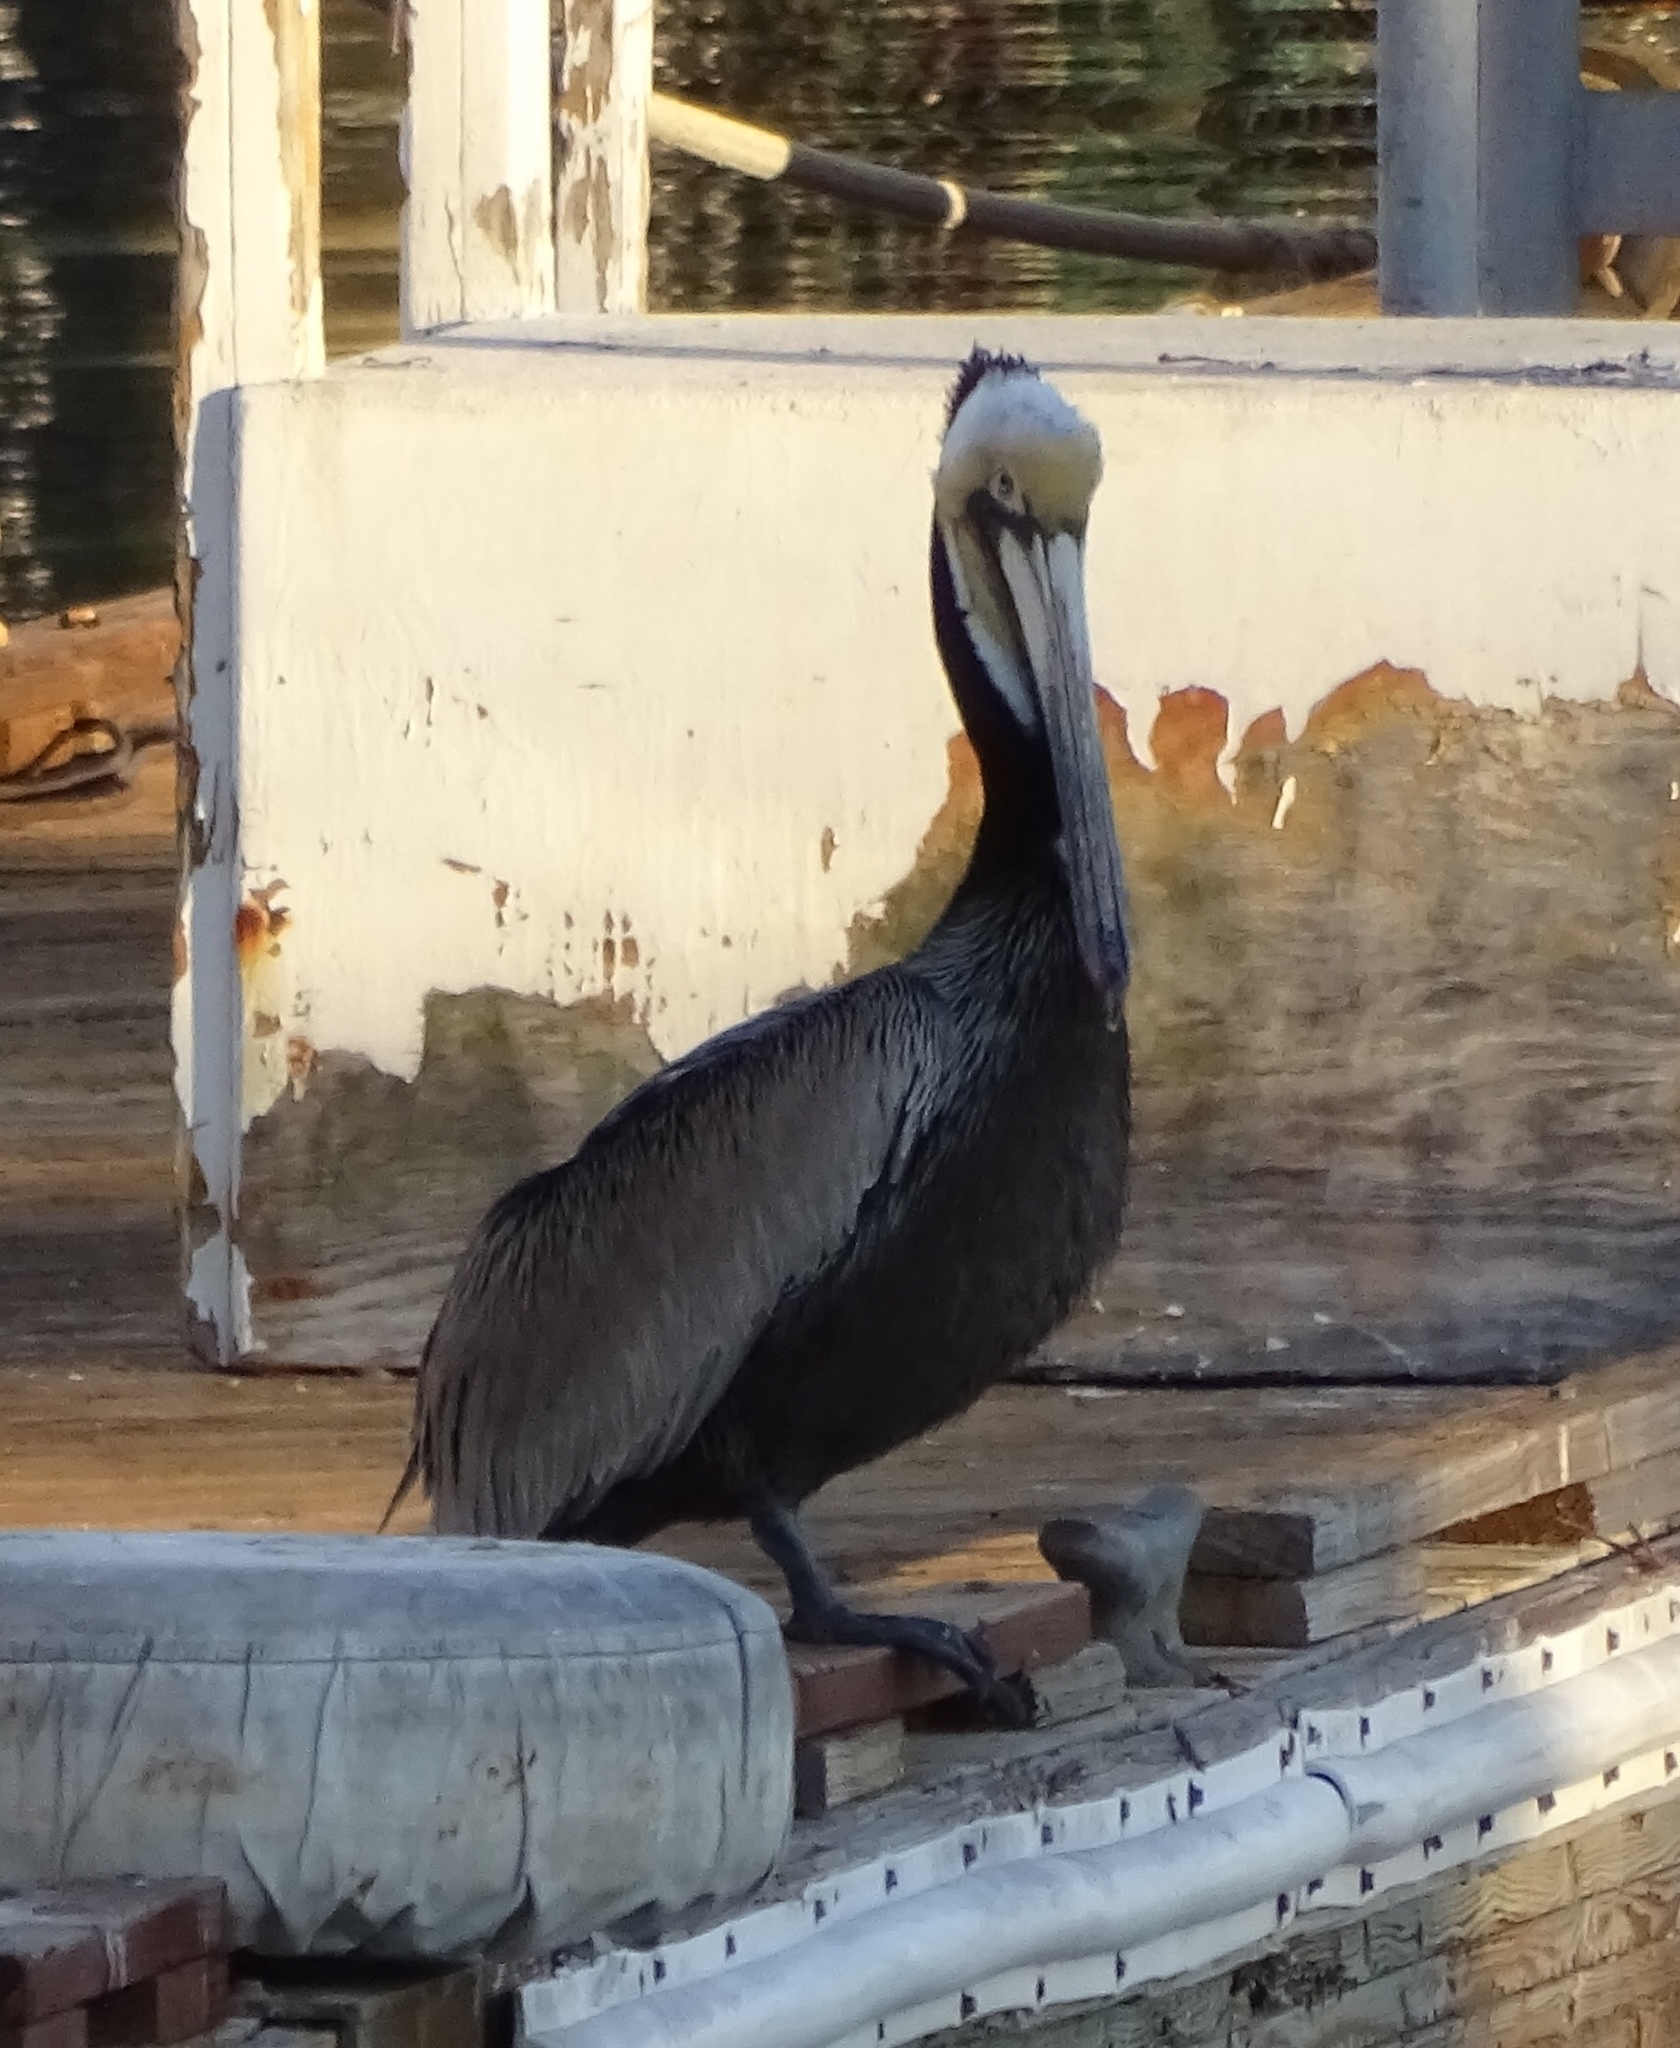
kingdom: Animalia
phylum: Chordata
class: Aves
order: Pelecaniformes
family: Pelecanidae
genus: Pelecanus
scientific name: Pelecanus occidentalis
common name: Brown pelican
